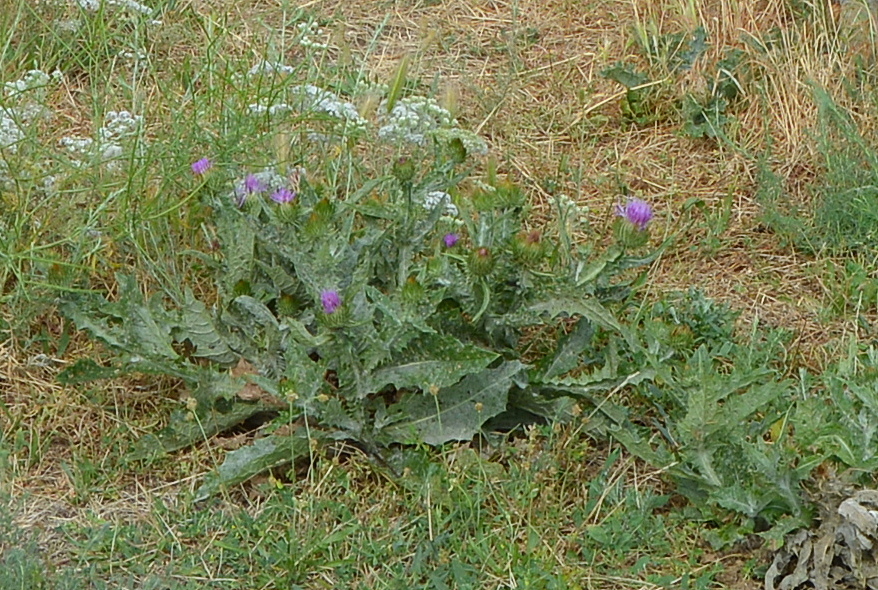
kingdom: Plantae
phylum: Tracheophyta
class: Magnoliopsida
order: Asterales
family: Asteraceae
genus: Onopordum
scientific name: Onopordum acanthium
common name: Scotch thistle
